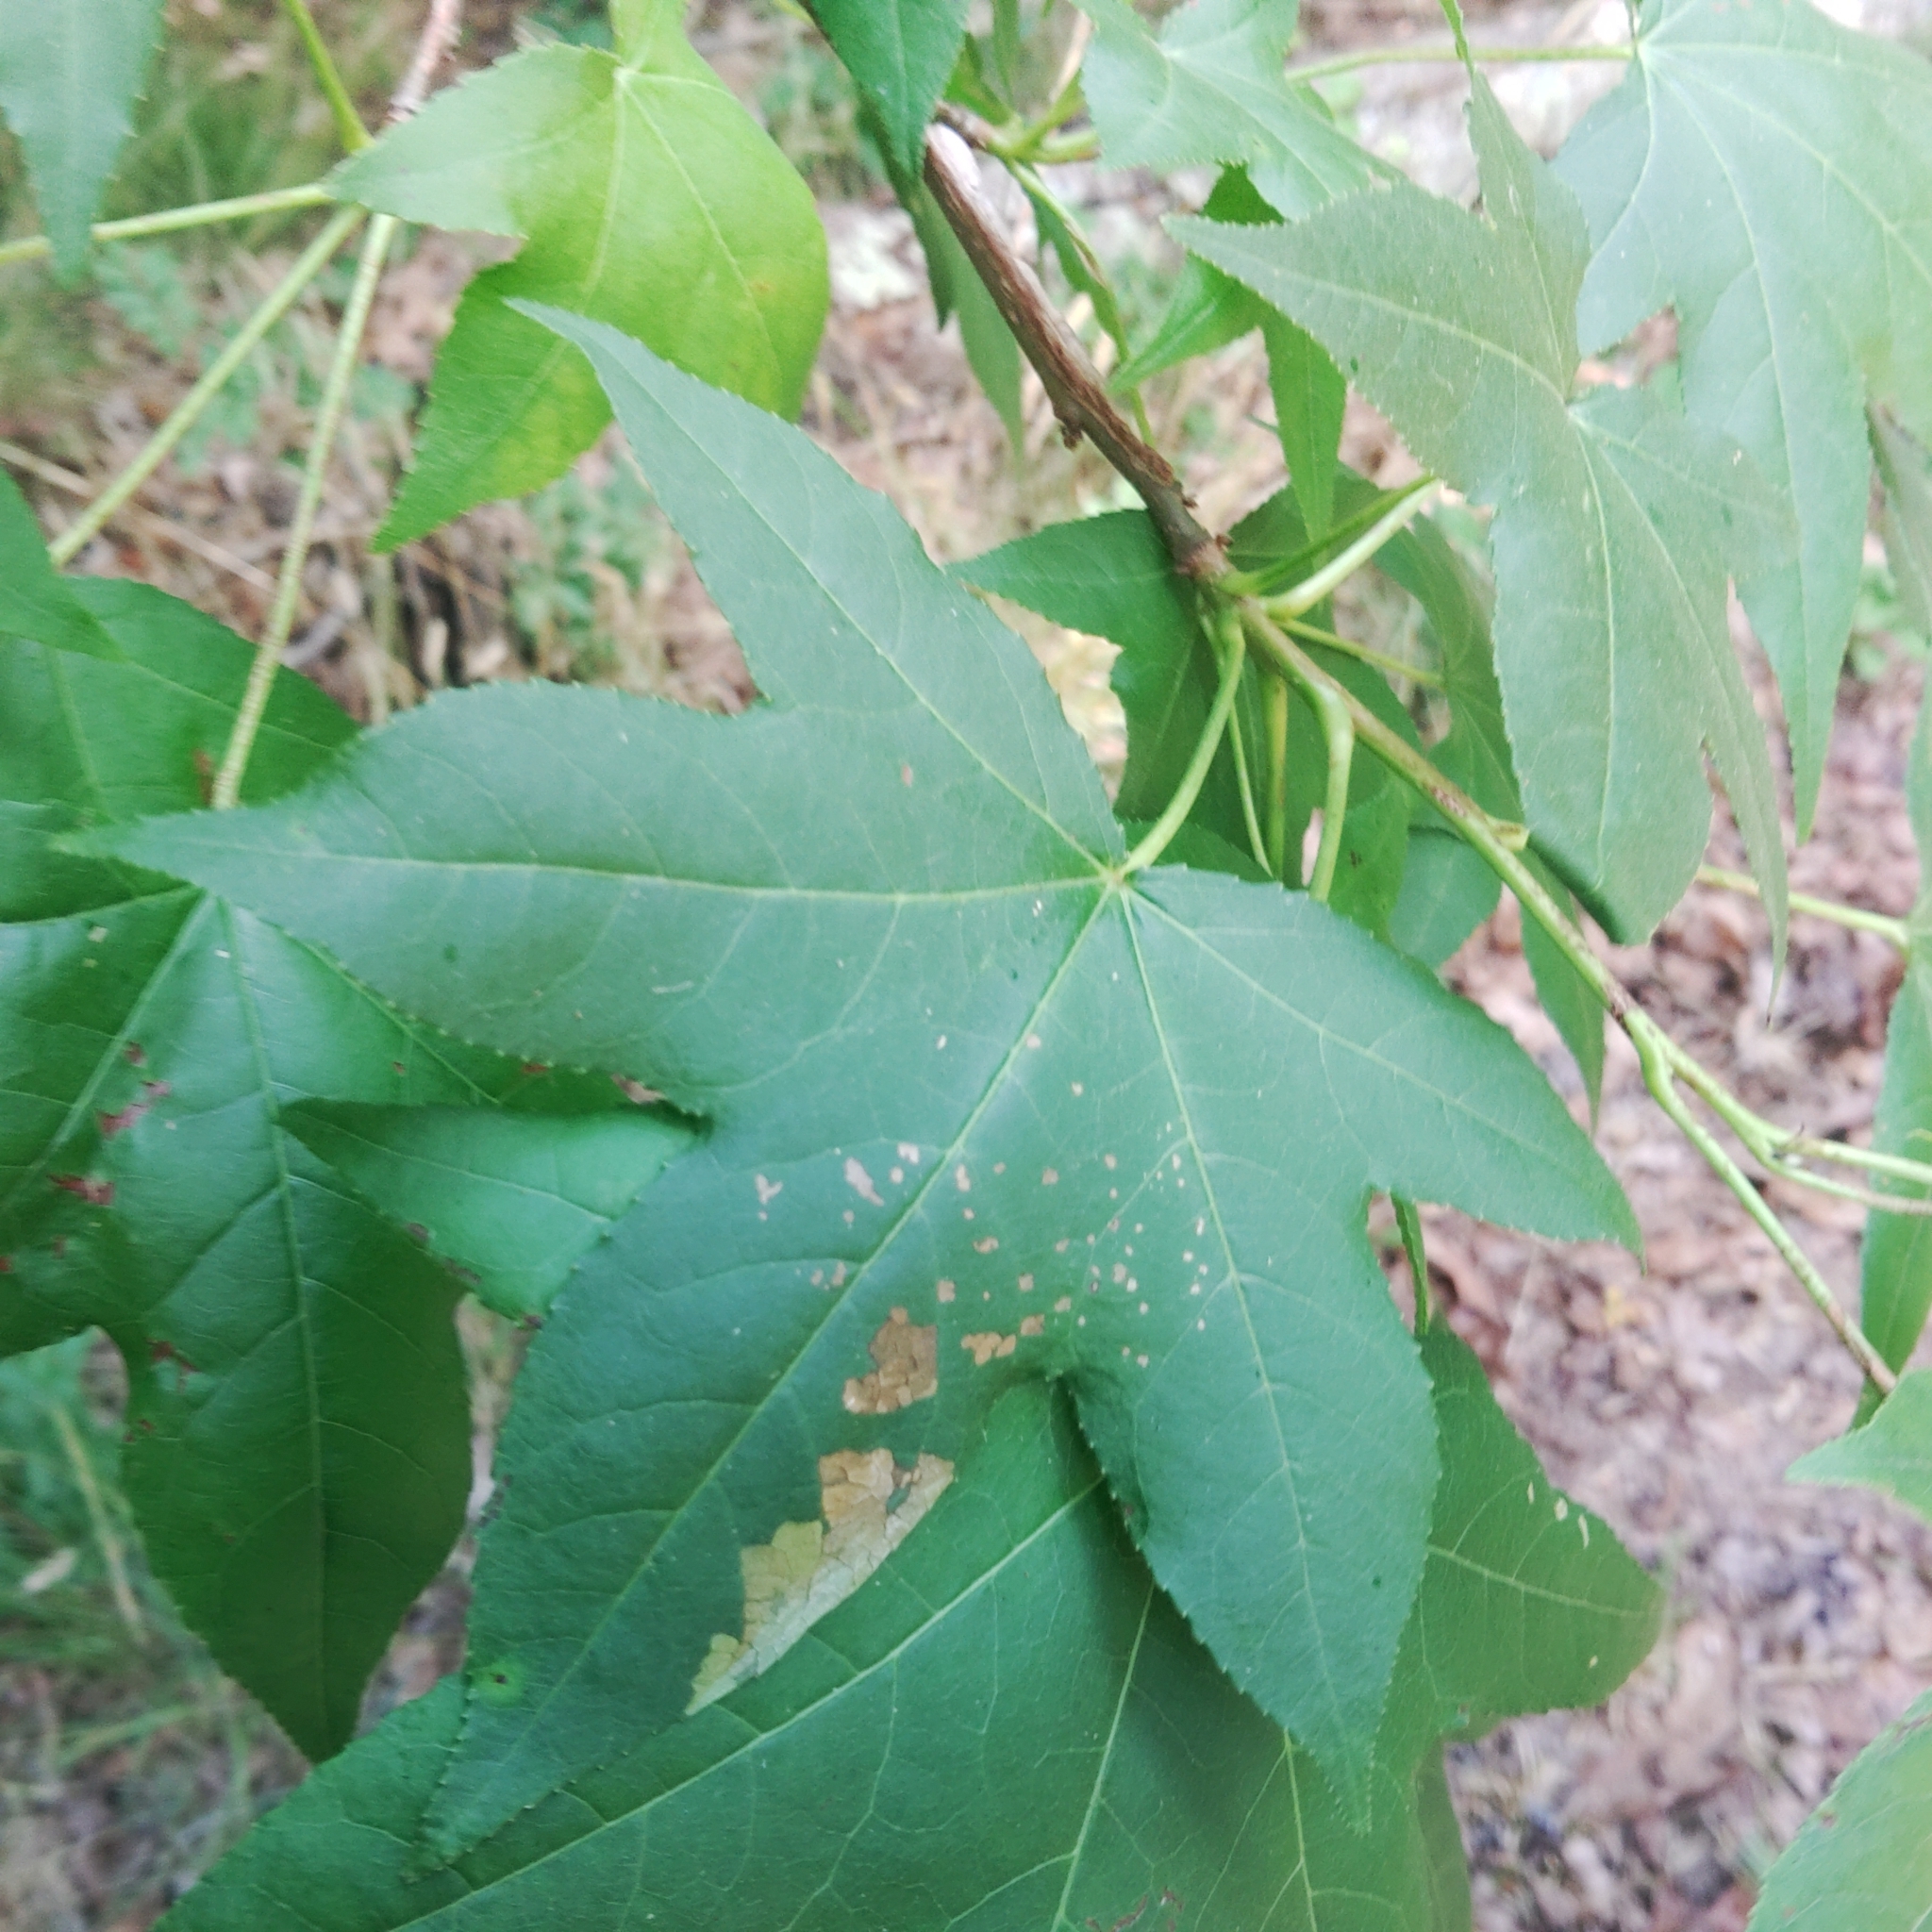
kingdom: Plantae
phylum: Tracheophyta
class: Magnoliopsida
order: Saxifragales
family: Altingiaceae
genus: Liquidambar
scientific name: Liquidambar styraciflua
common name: Sweet gum
